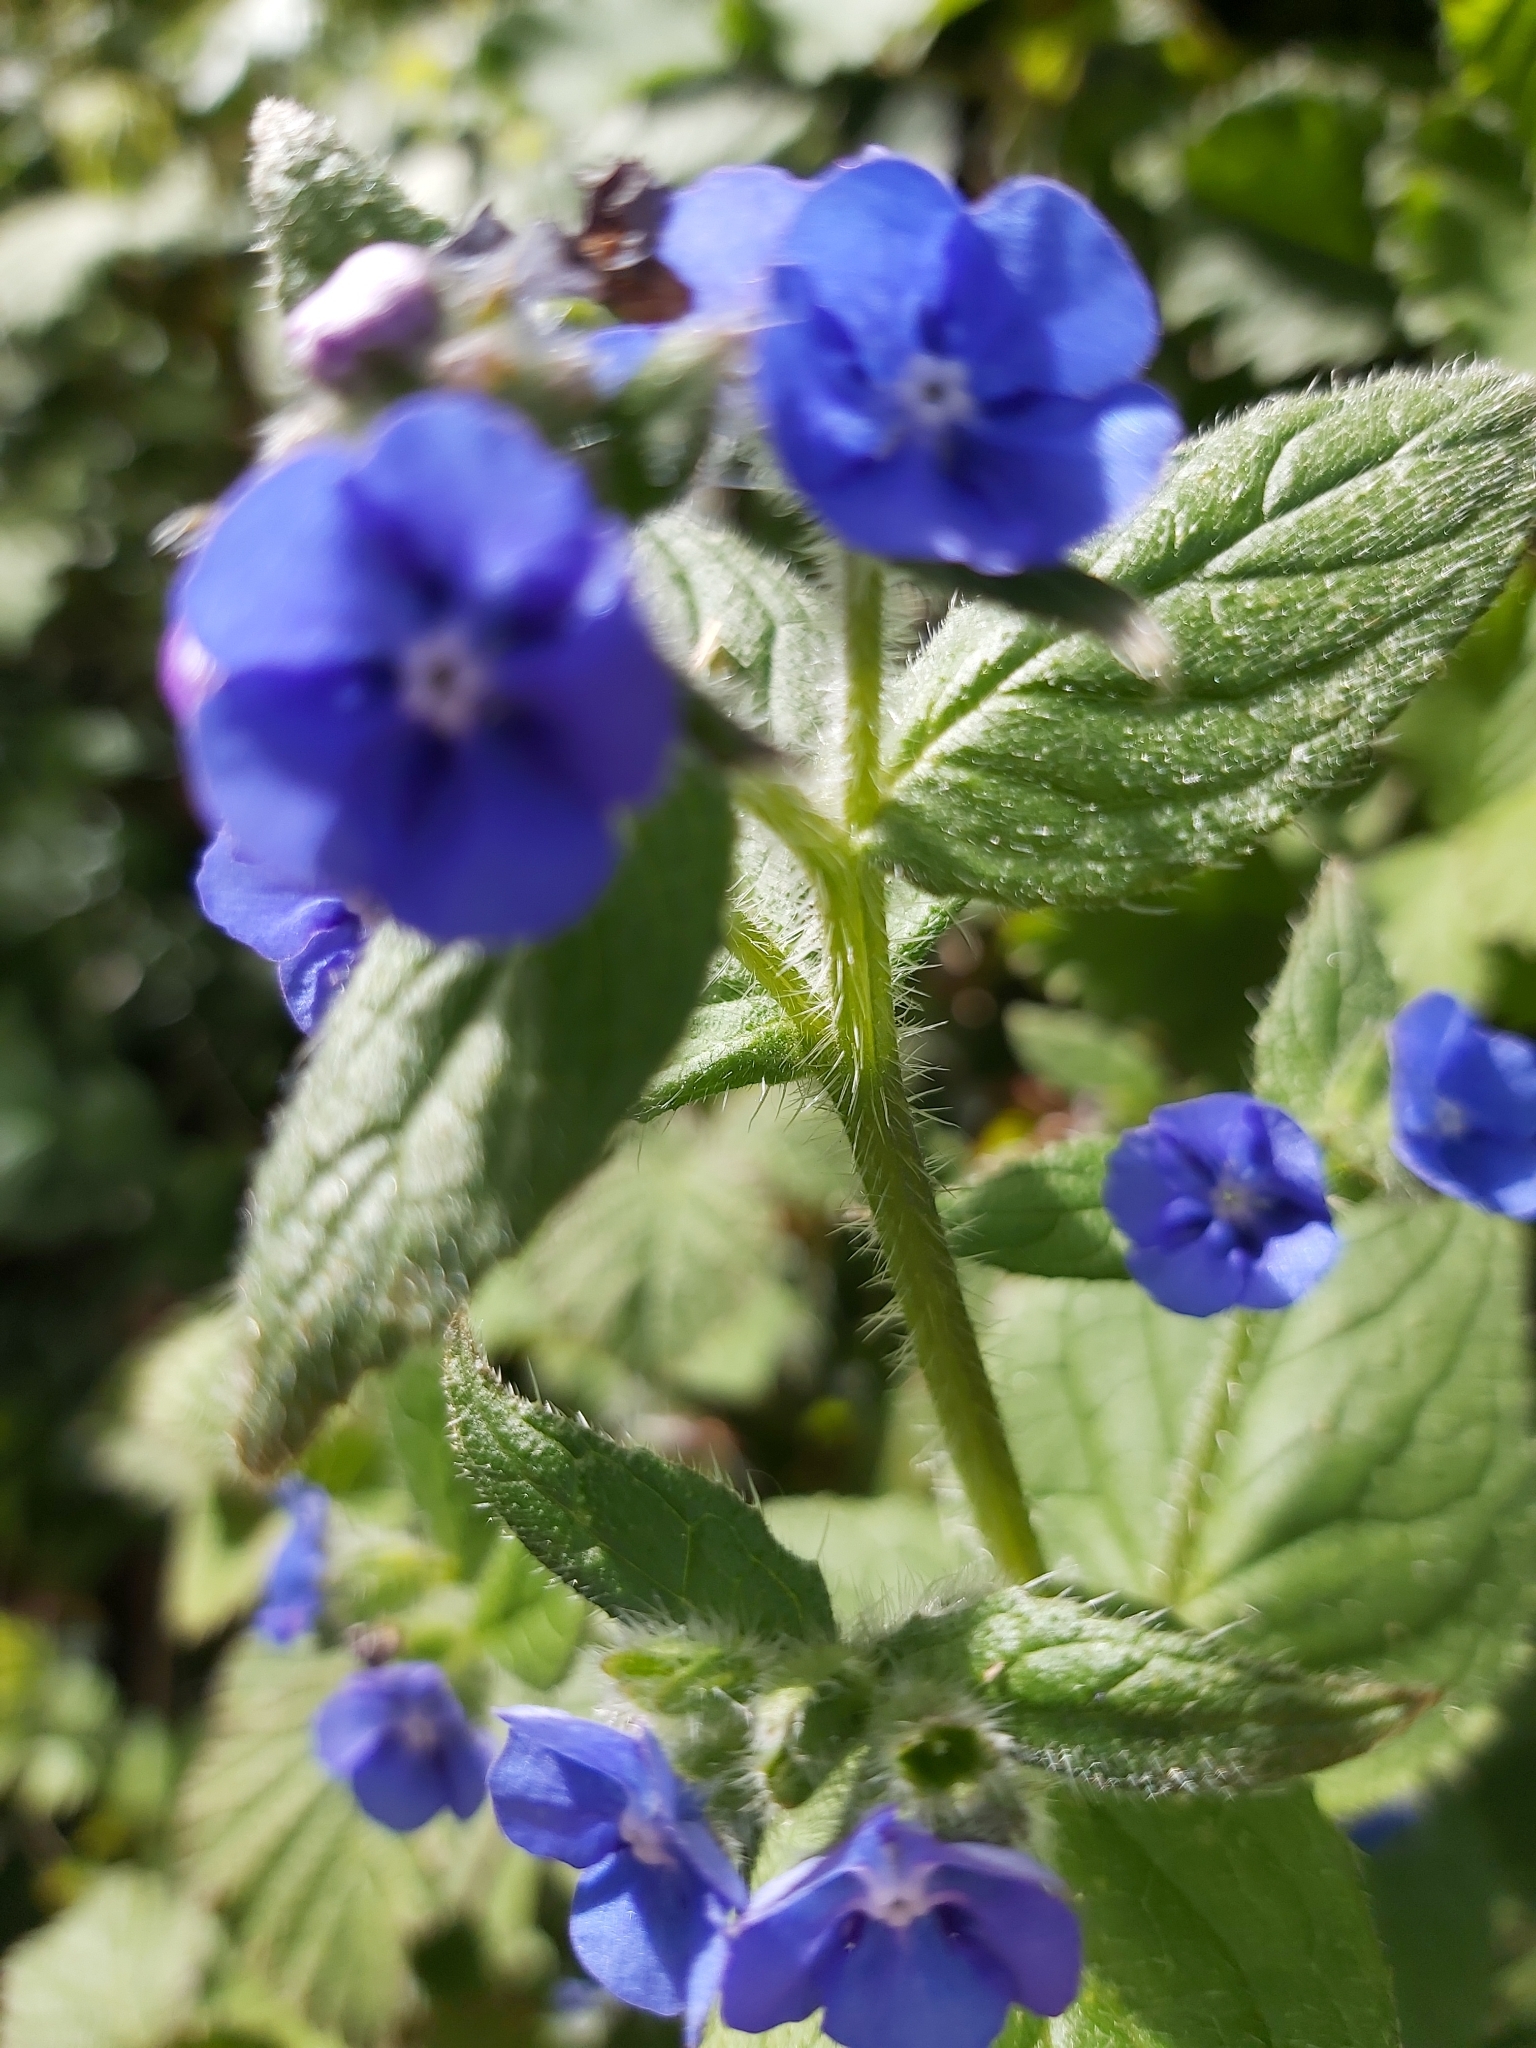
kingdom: Plantae
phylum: Tracheophyta
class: Magnoliopsida
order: Boraginales
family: Boraginaceae
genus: Pentaglottis
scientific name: Pentaglottis sempervirens
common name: Green alkanet
